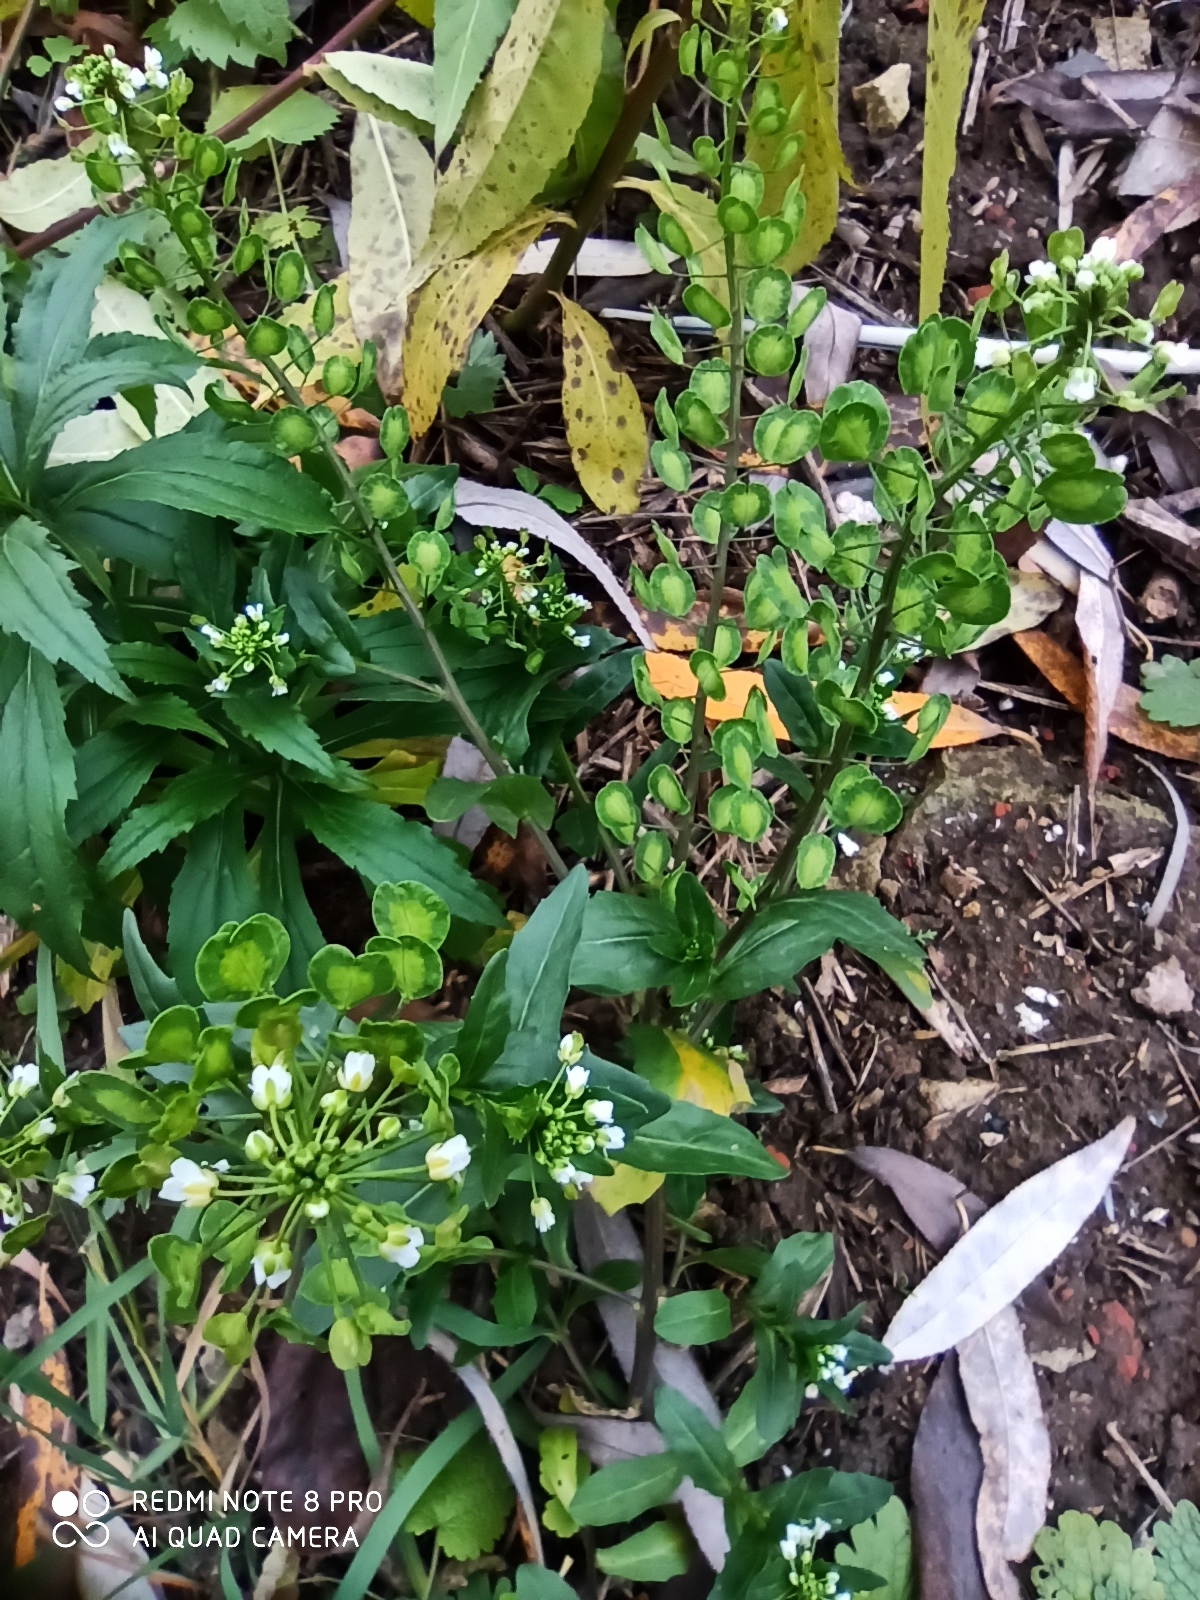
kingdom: Plantae
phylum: Tracheophyta
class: Magnoliopsida
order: Brassicales
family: Brassicaceae
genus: Thlaspi
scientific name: Thlaspi arvense
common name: Field pennycress
